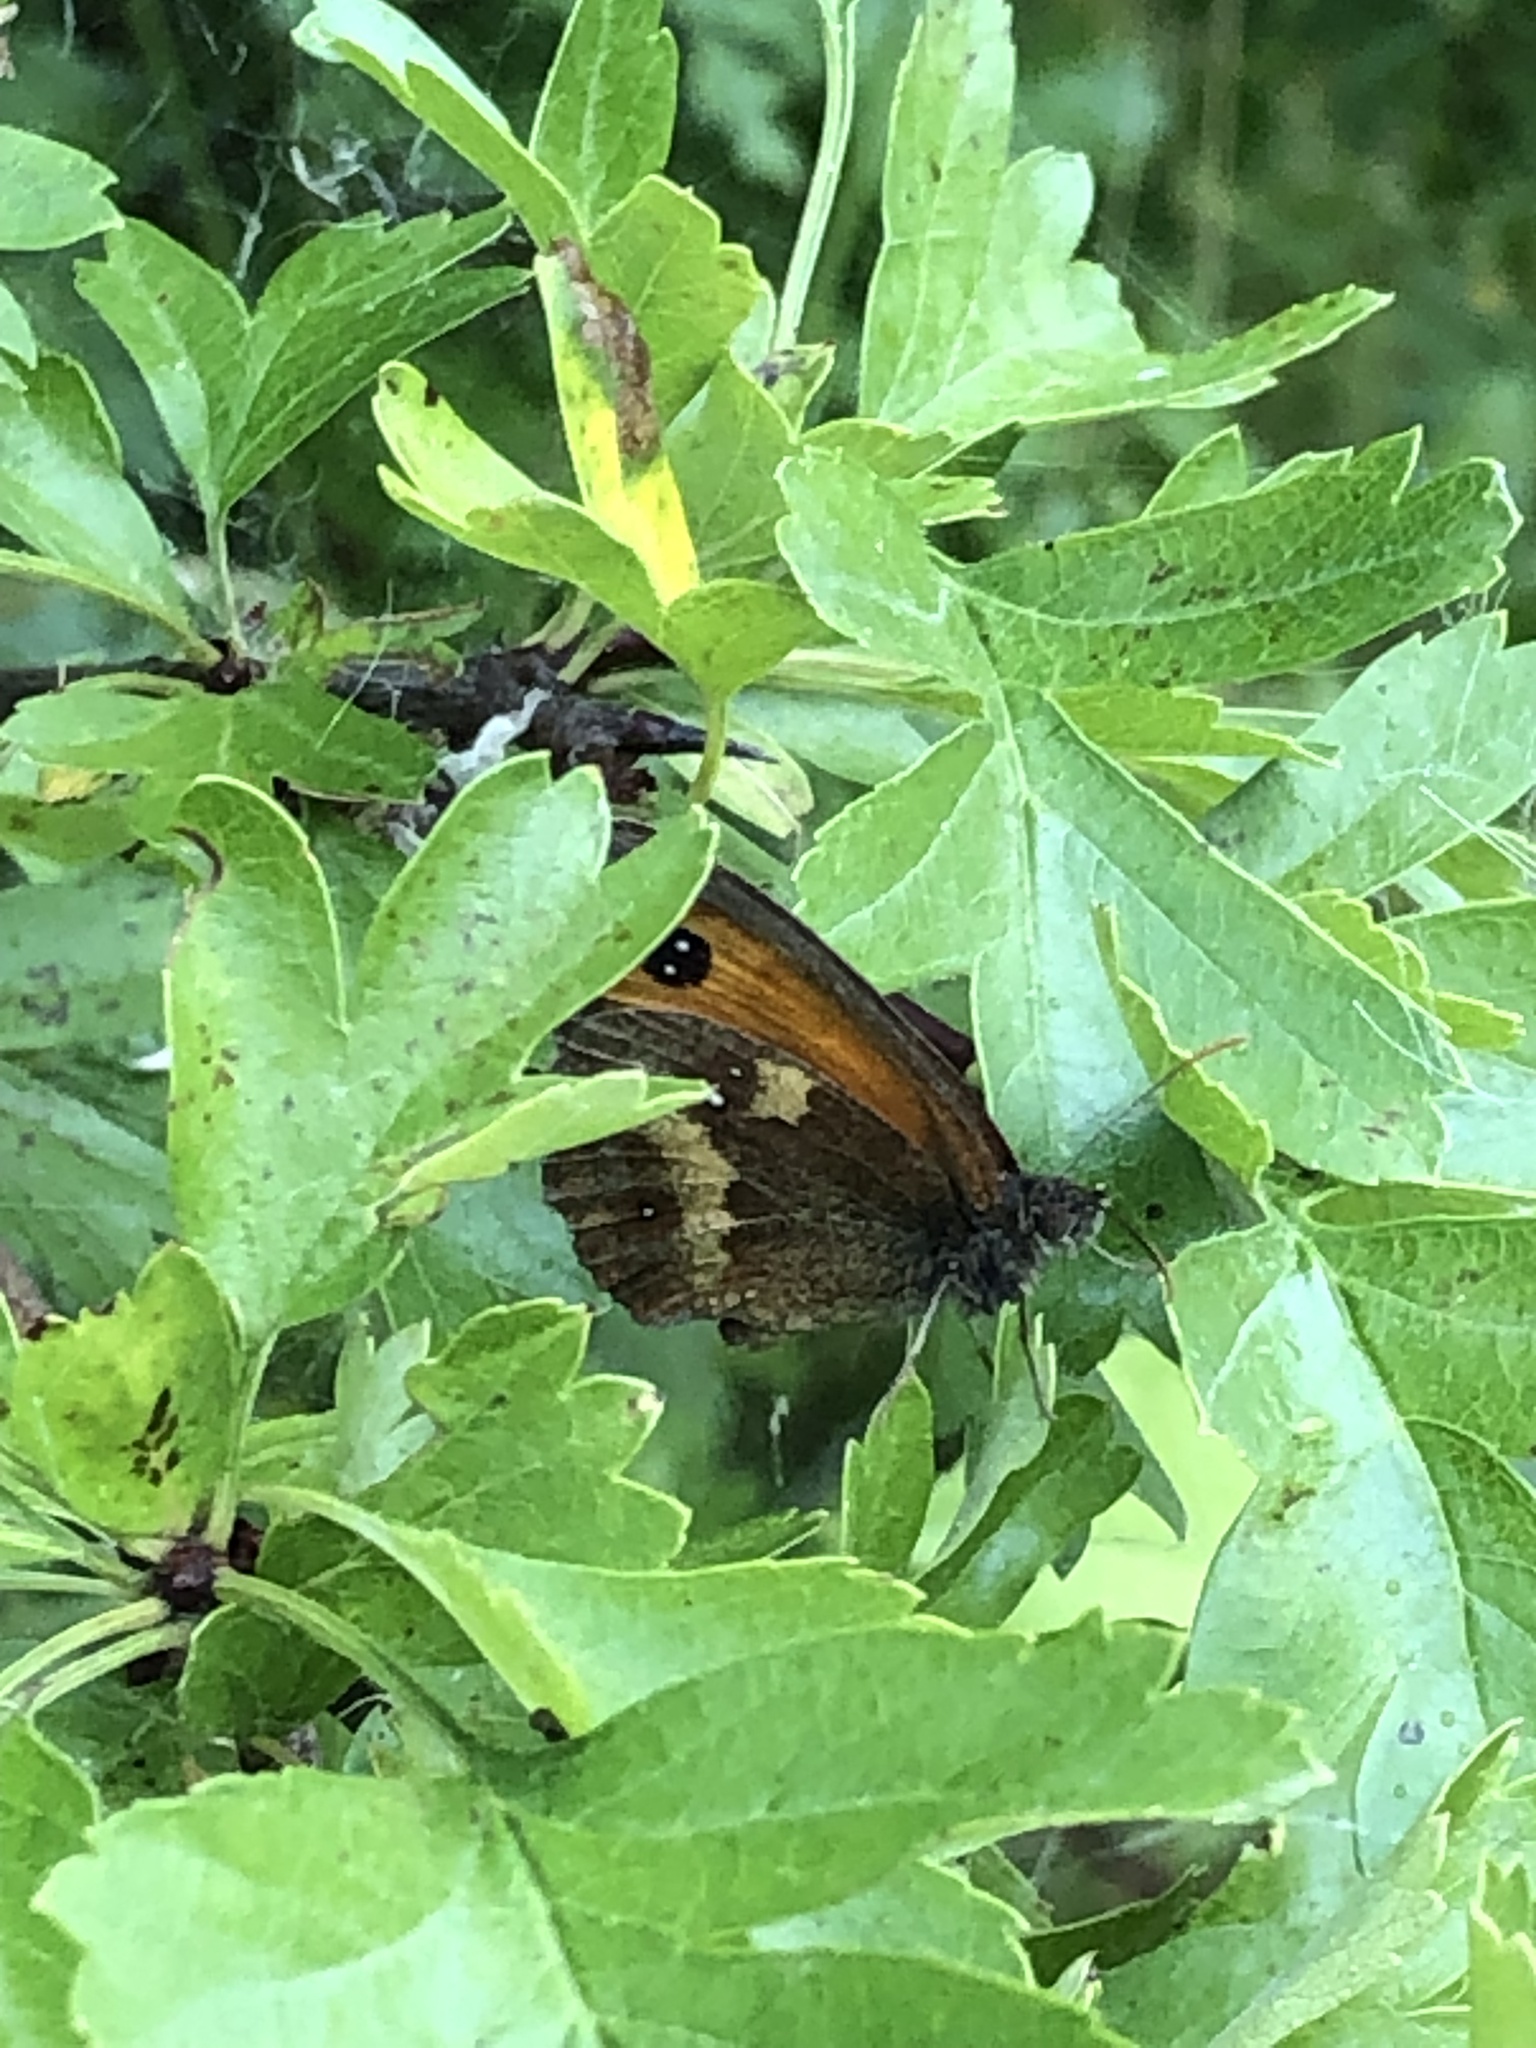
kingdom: Animalia
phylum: Arthropoda
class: Insecta
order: Lepidoptera
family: Nymphalidae
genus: Pyronia
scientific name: Pyronia tithonus
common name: Gatekeeper
